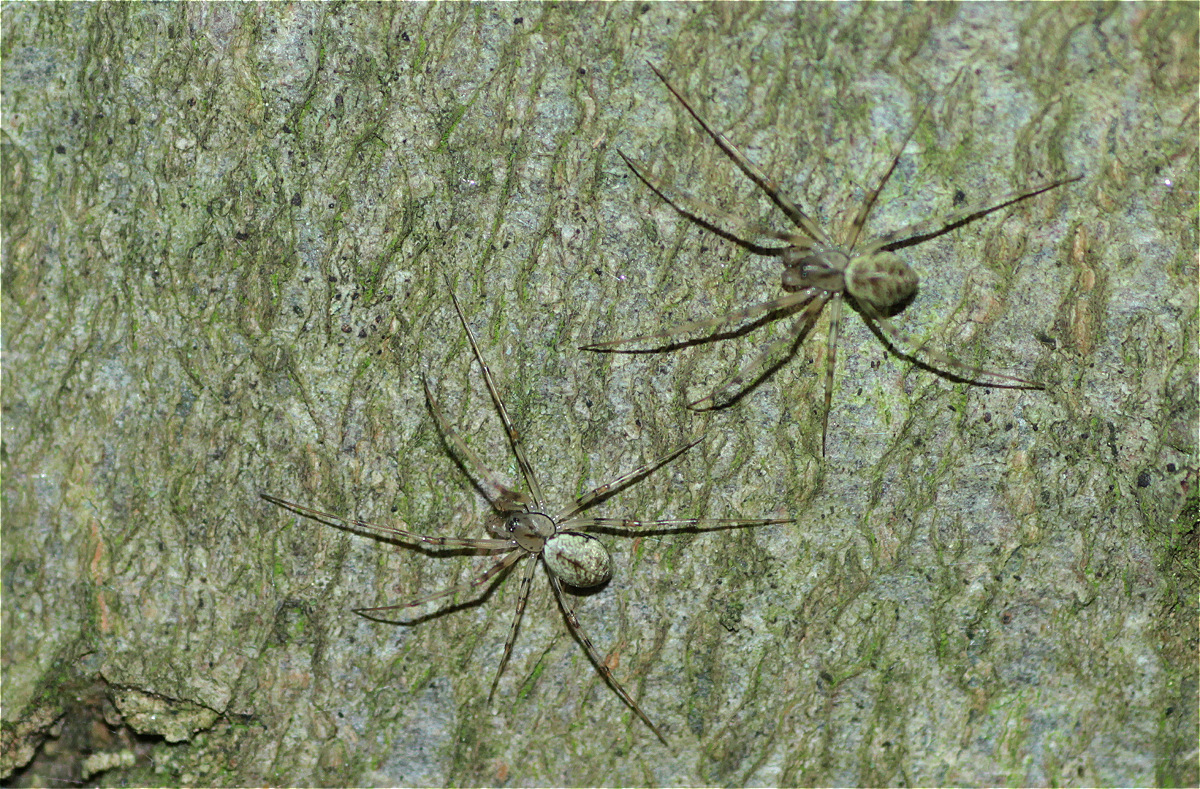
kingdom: Animalia
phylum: Arthropoda
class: Arachnida
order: Araneae
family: Linyphiidae
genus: Drapetisca
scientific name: Drapetisca socialis
